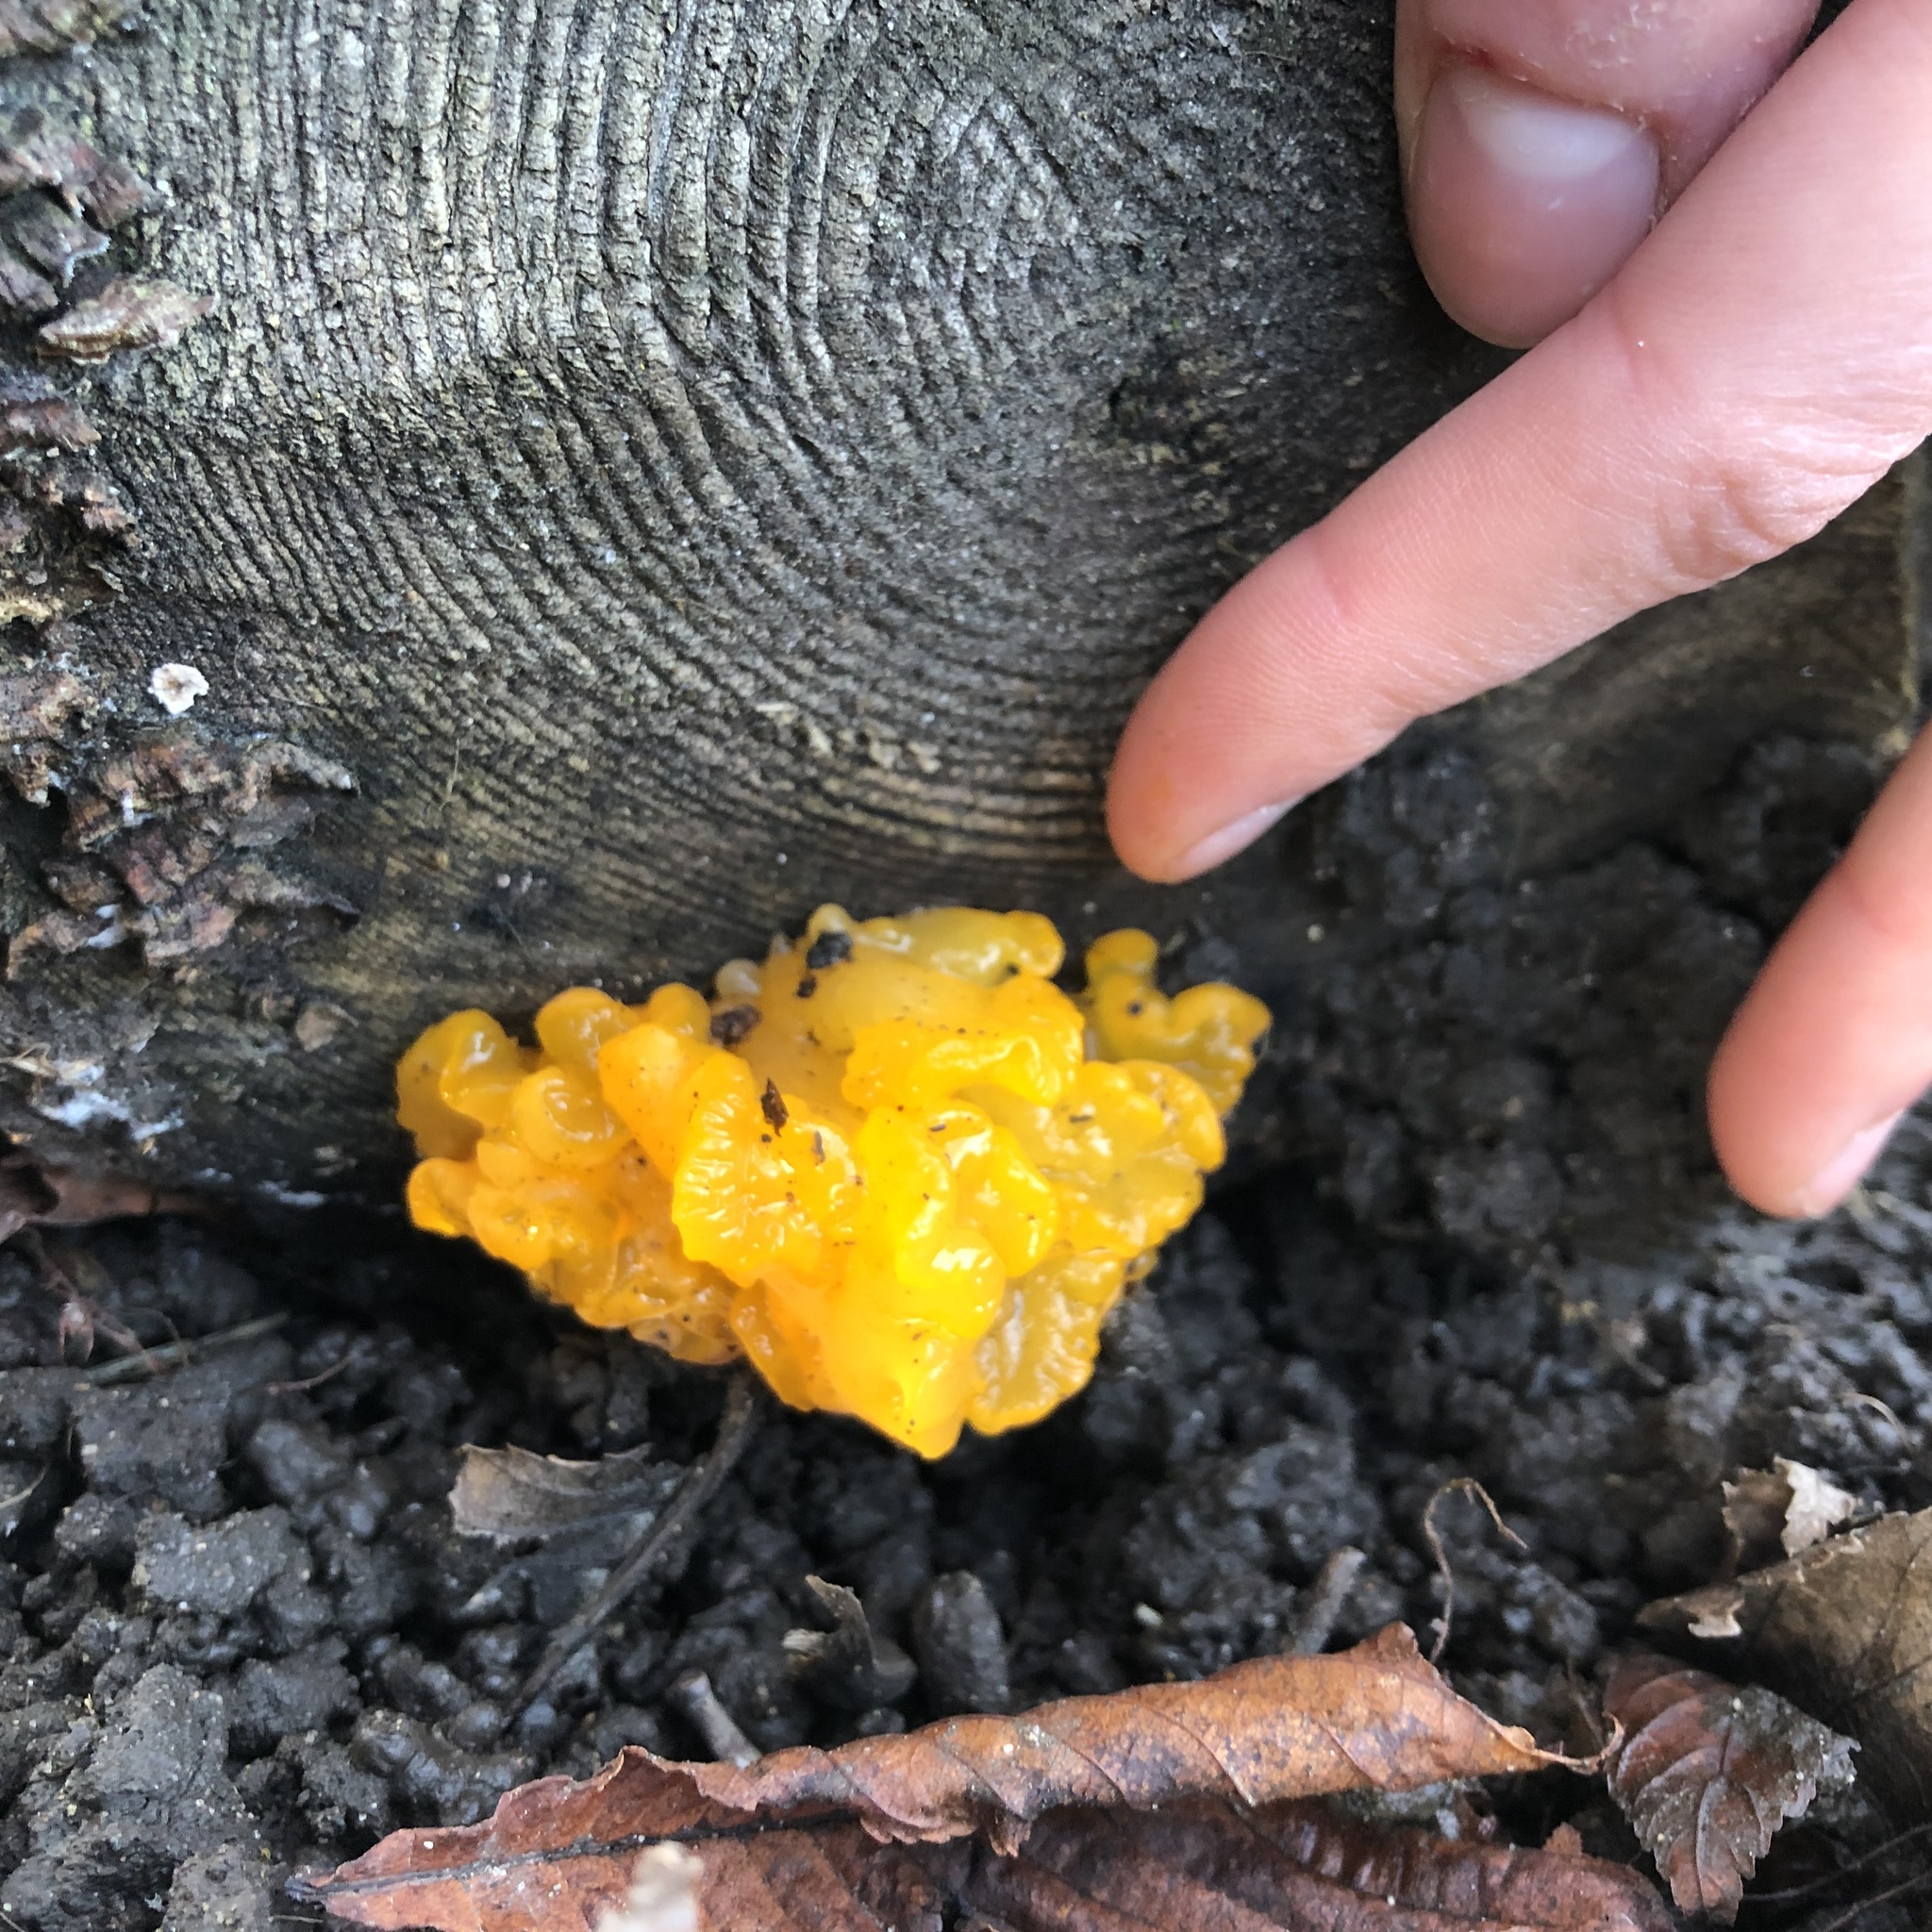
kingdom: Fungi
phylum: Basidiomycota
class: Dacrymycetes
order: Dacrymycetales
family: Dacrymycetaceae
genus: Dacrymyces
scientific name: Dacrymyces chrysospermus
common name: Orange jelly spot
